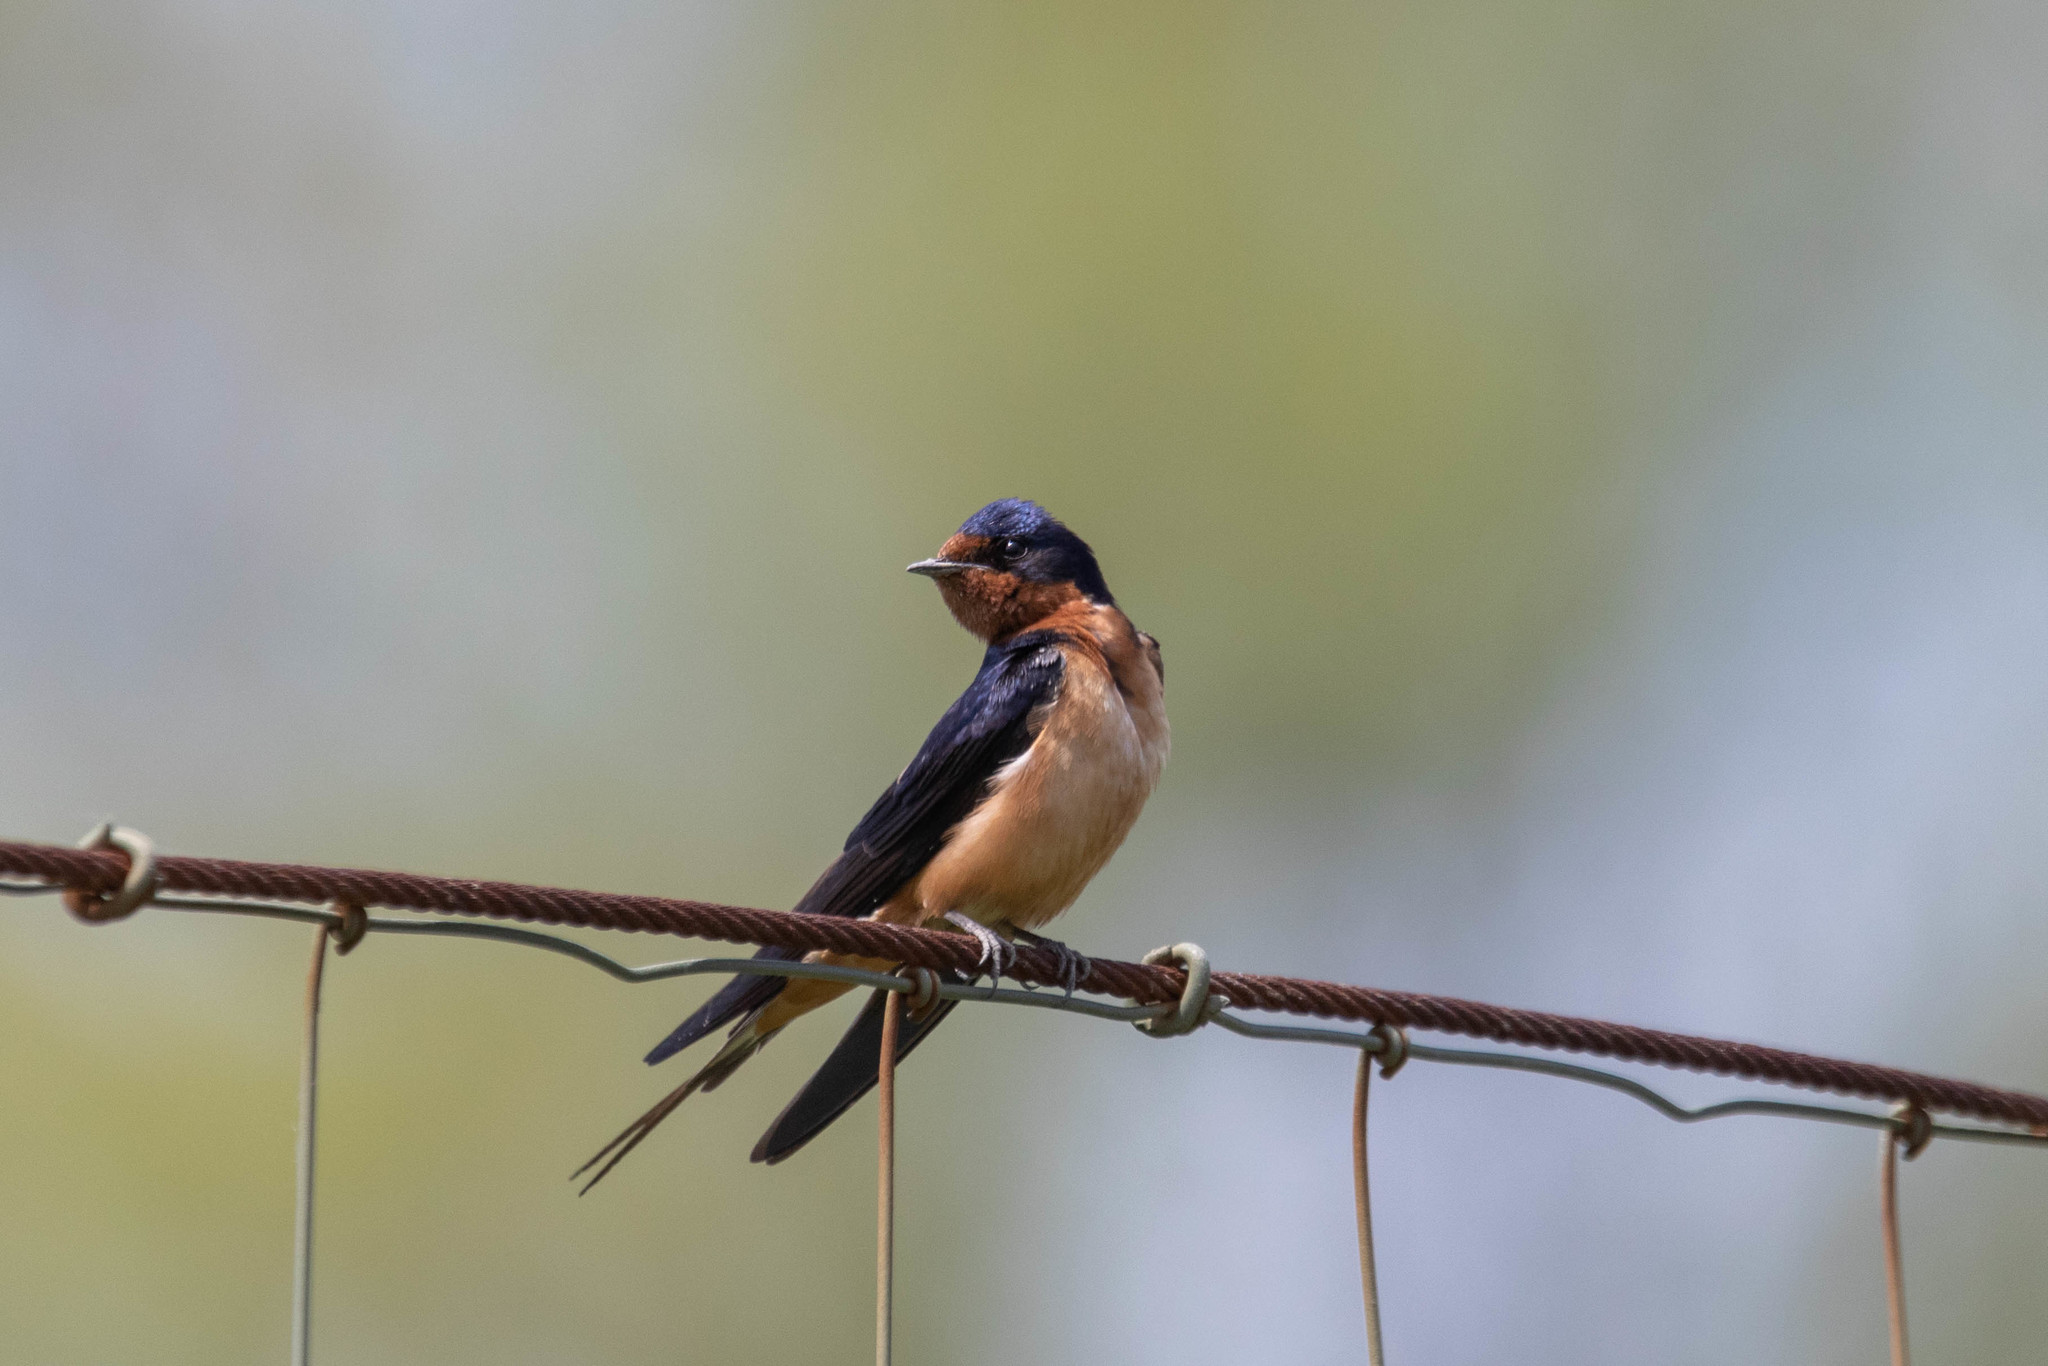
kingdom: Animalia
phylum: Chordata
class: Aves
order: Passeriformes
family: Hirundinidae
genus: Hirundo
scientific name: Hirundo rustica
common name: Barn swallow
